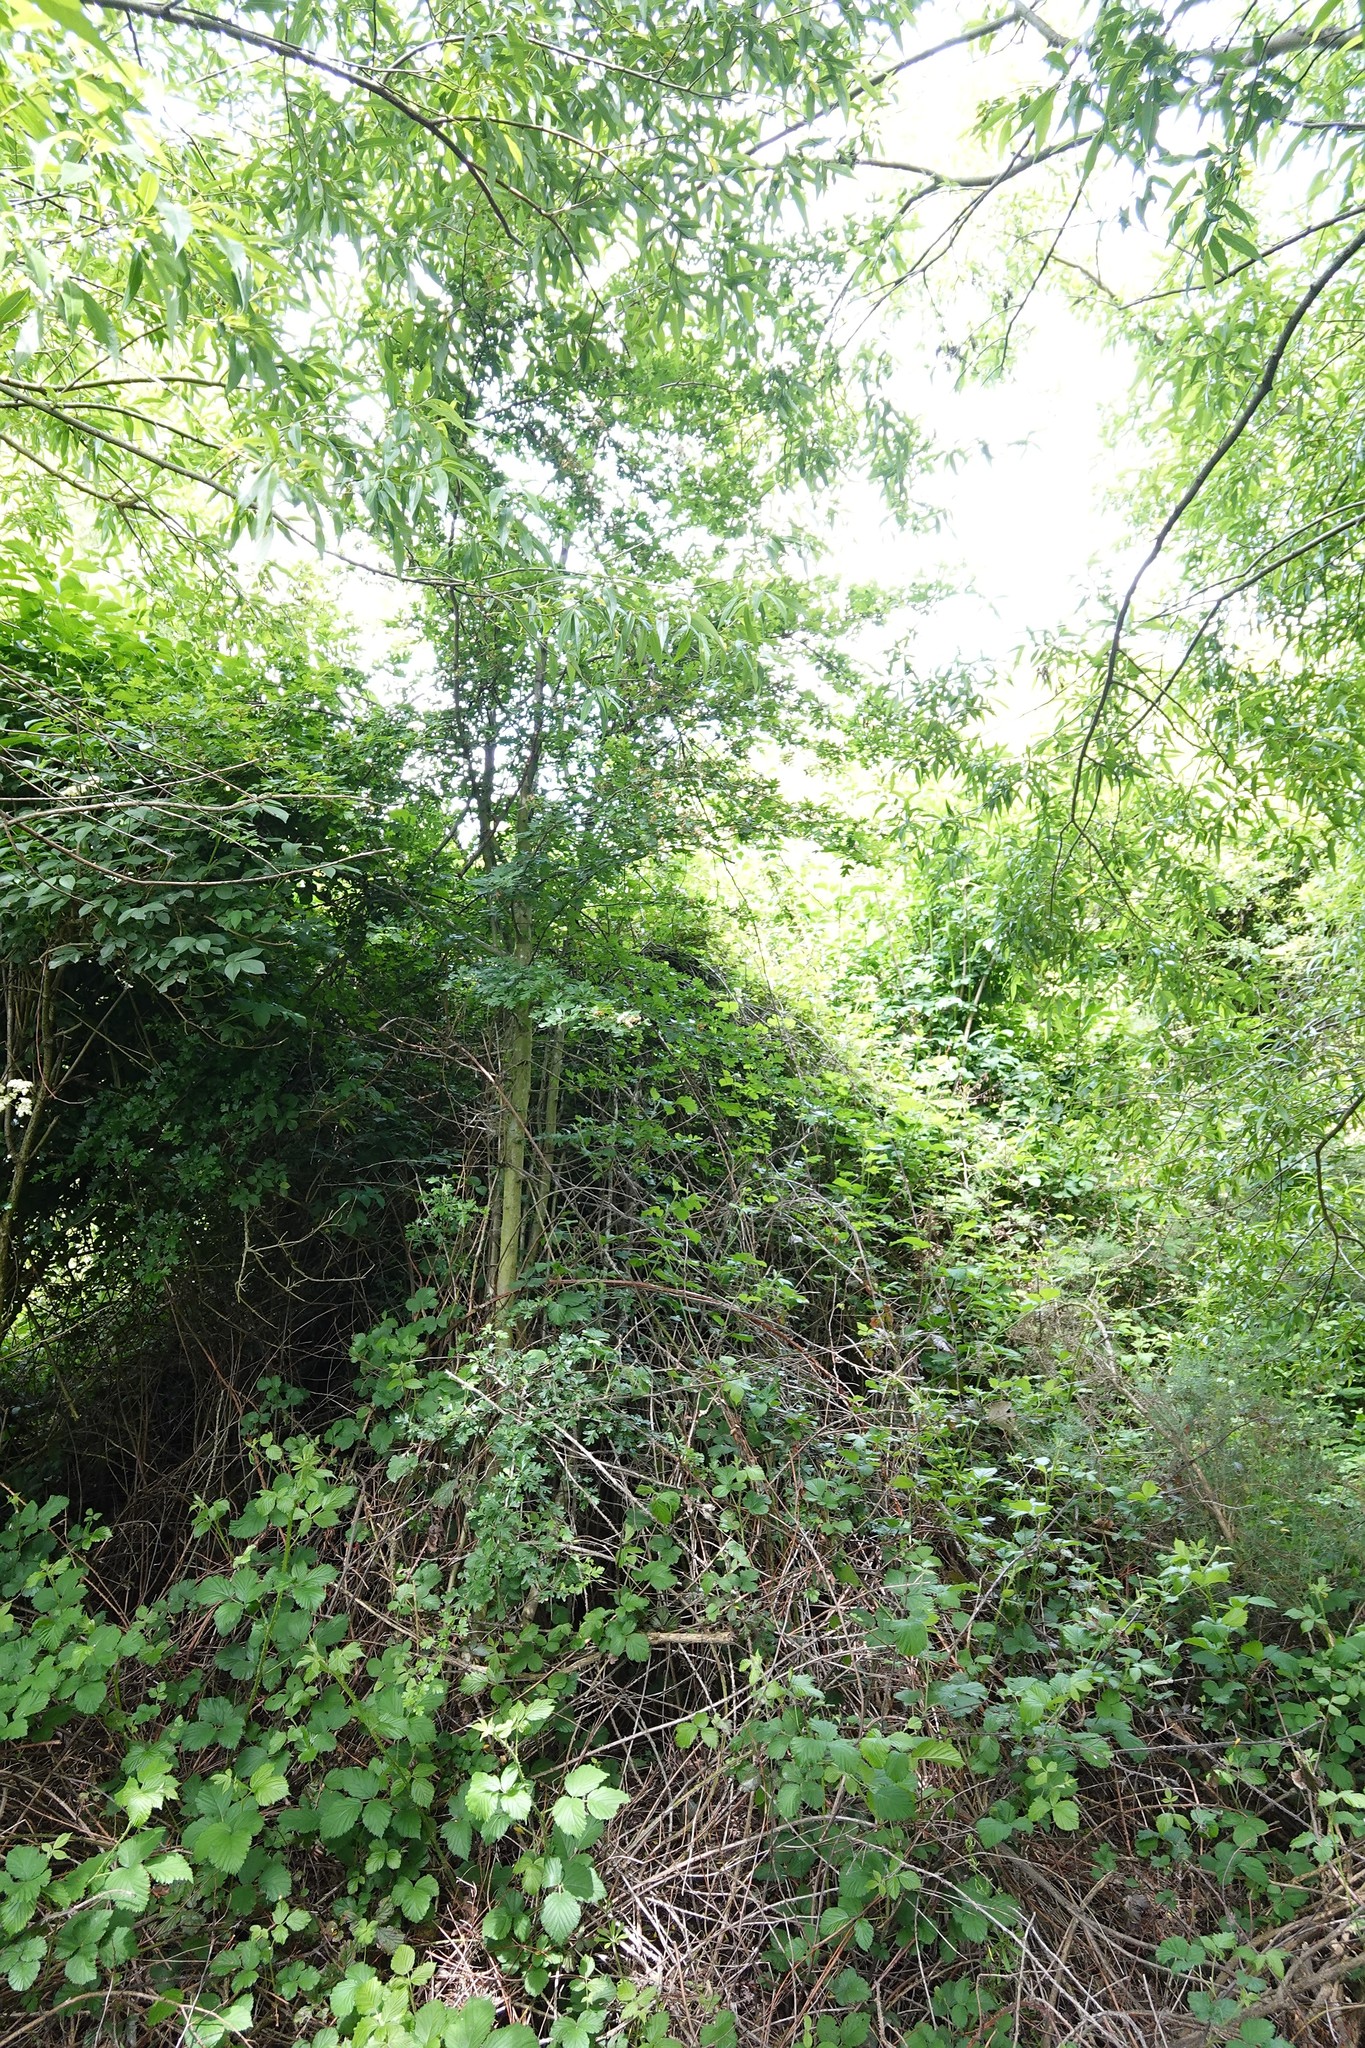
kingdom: Plantae
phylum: Tracheophyta
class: Magnoliopsida
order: Rosales
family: Rosaceae
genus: Crataegus
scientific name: Crataegus monogyna
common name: Hawthorn
